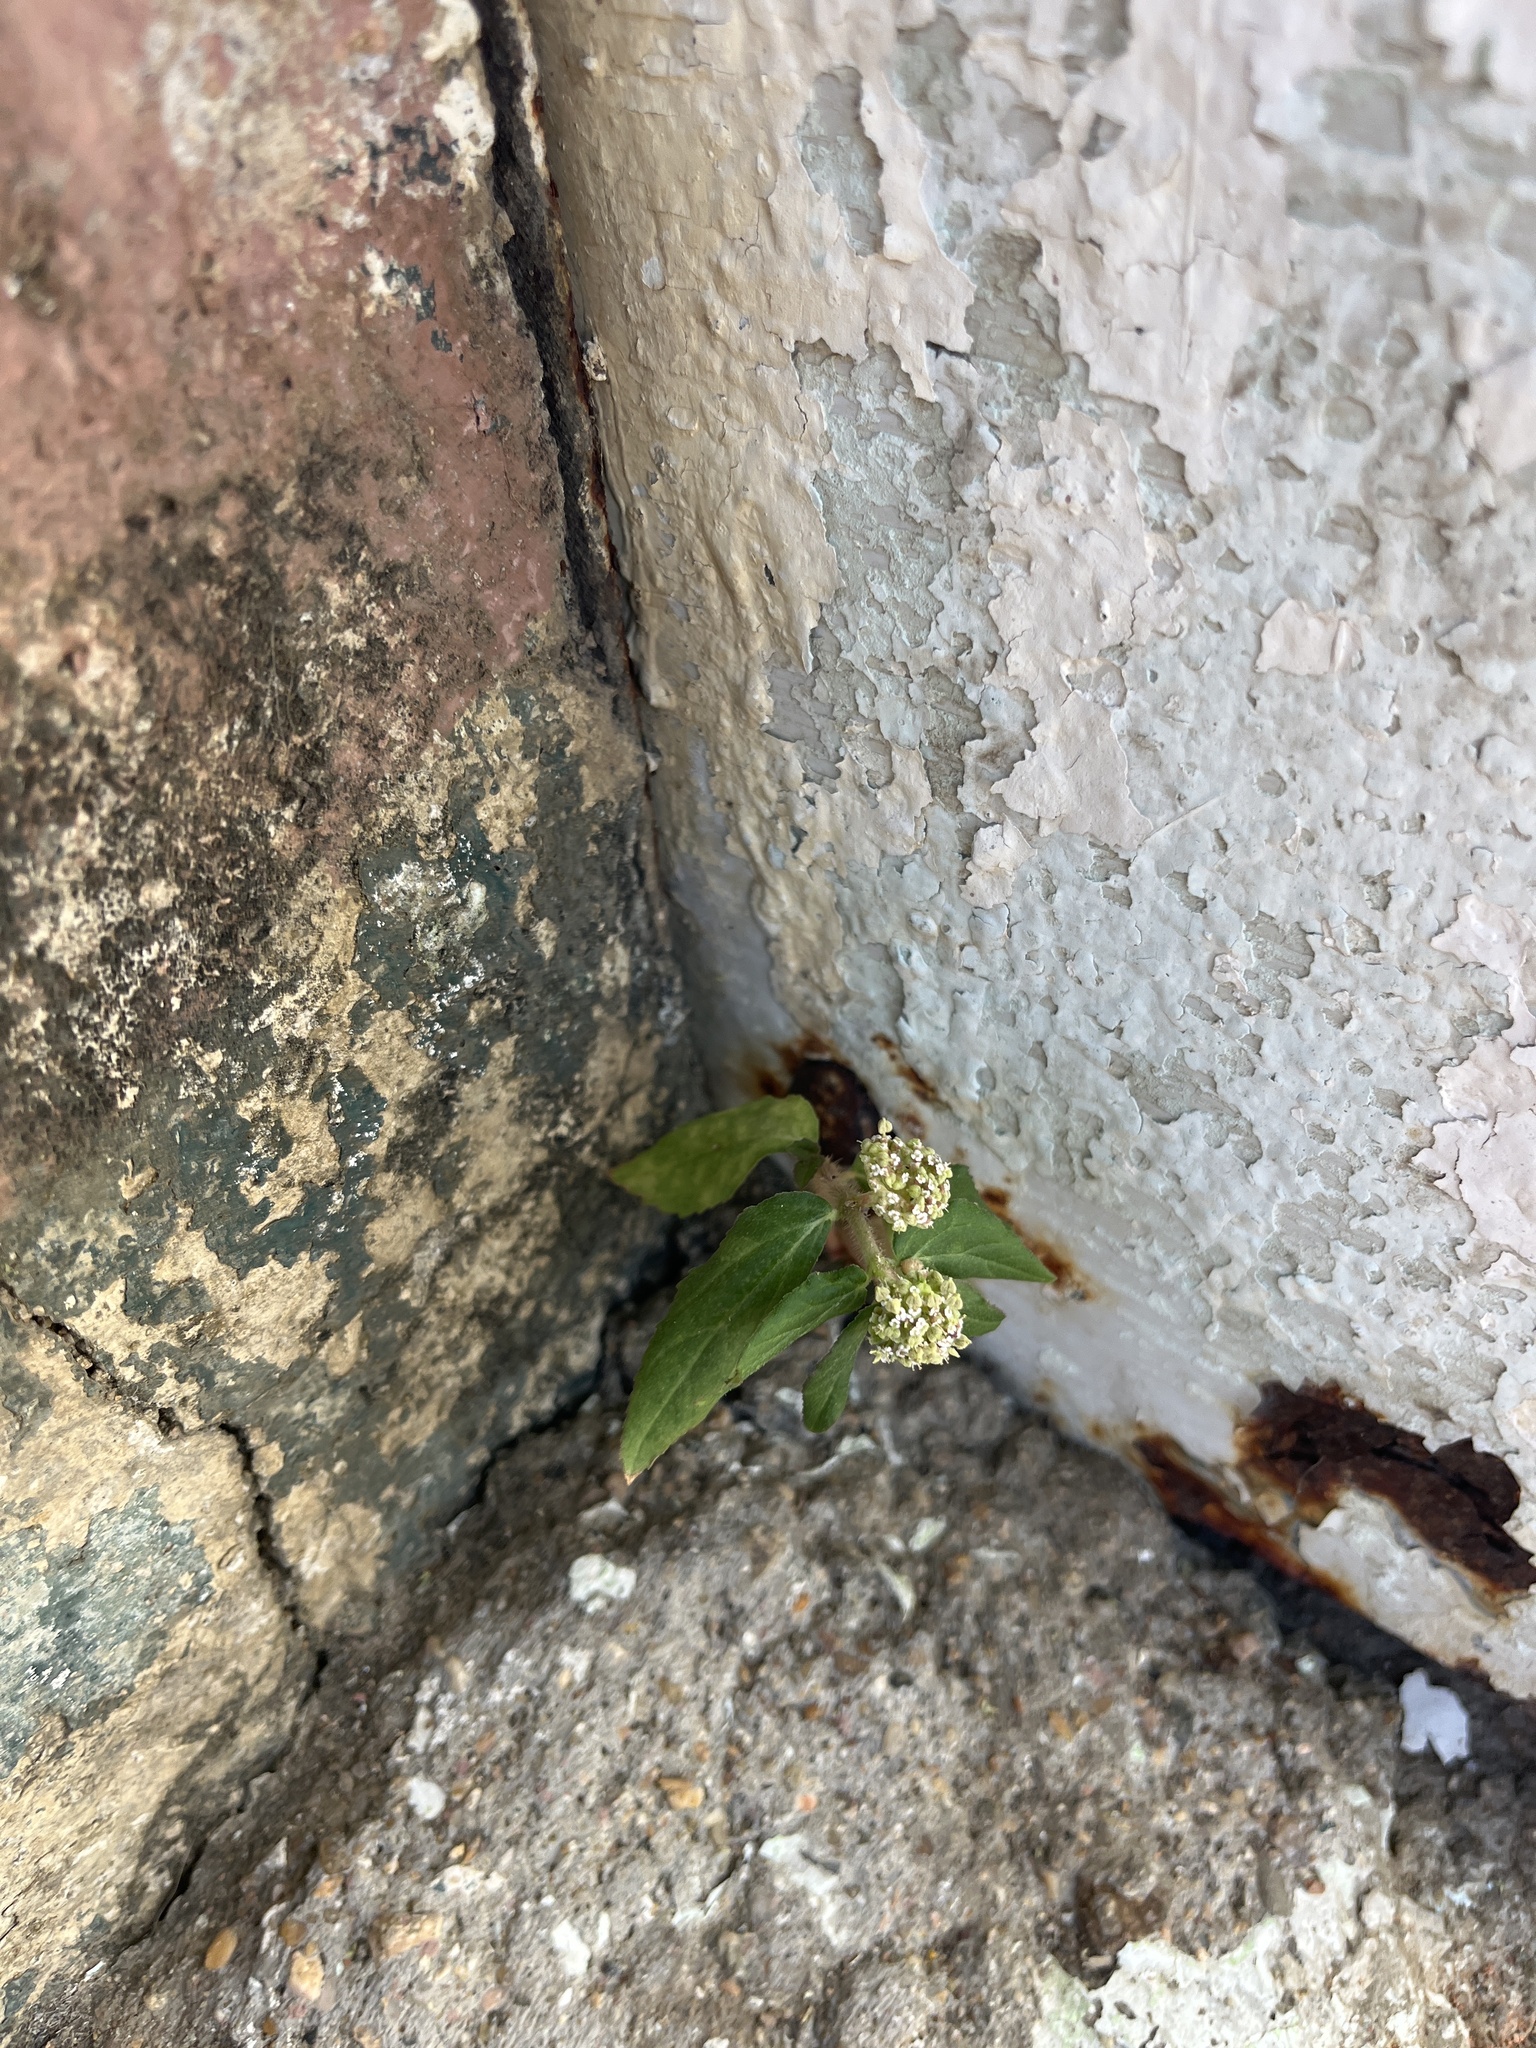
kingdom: Plantae
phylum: Tracheophyta
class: Magnoliopsida
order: Malpighiales
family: Euphorbiaceae
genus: Euphorbia
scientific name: Euphorbia hirta
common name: Pillpod sandmat
